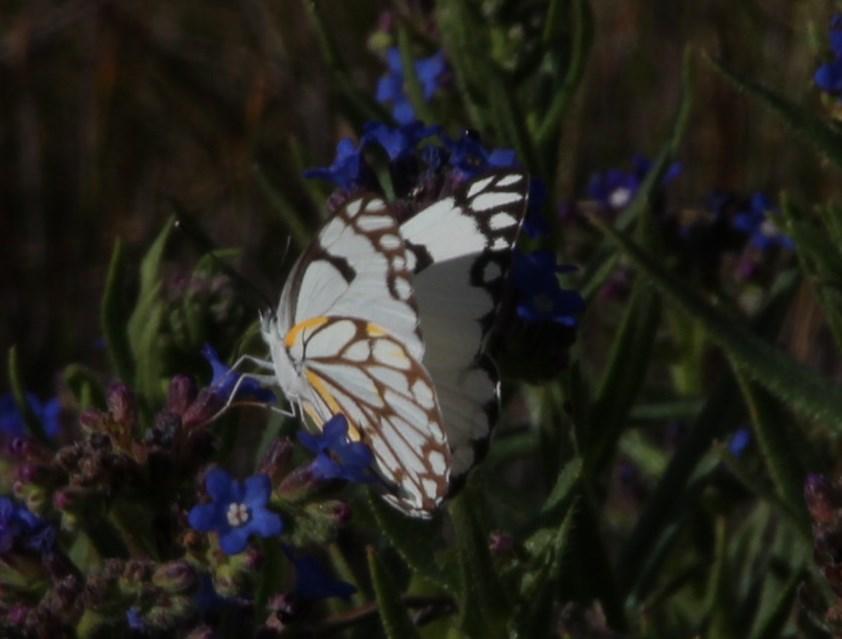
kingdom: Animalia
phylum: Arthropoda
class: Insecta
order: Lepidoptera
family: Pieridae
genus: Belenois
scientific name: Belenois aurota
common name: Brown-veined white
